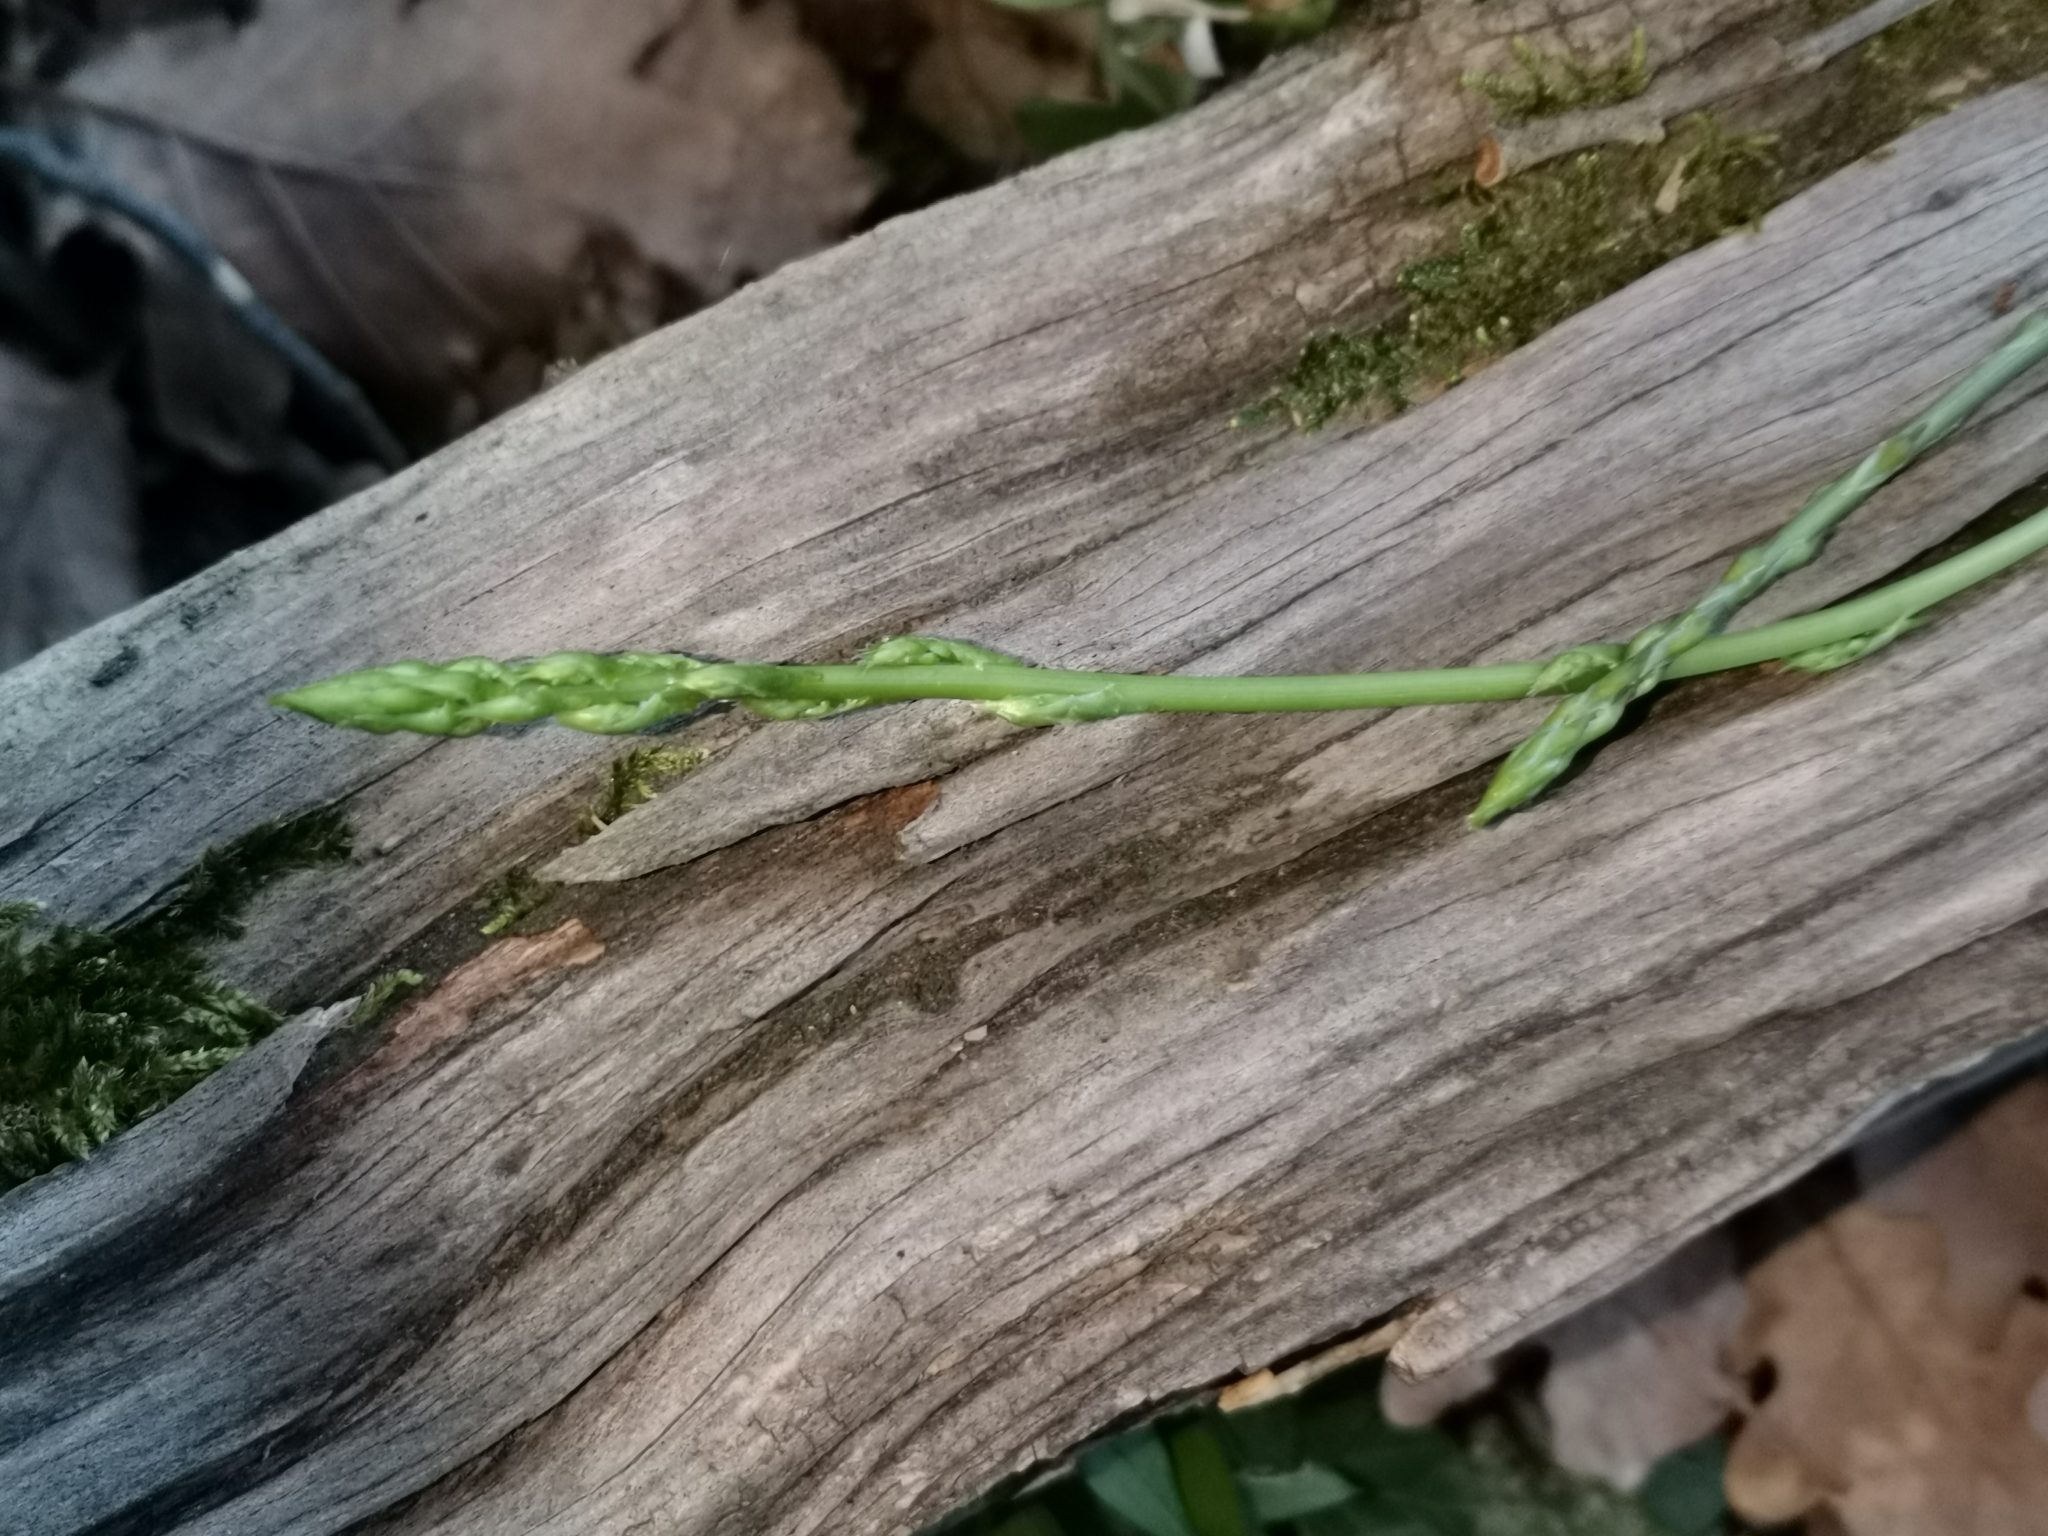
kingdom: Plantae
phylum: Tracheophyta
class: Liliopsida
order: Asparagales
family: Asparagaceae
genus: Asparagus
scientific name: Asparagus acutifolius
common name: Wild asparagus
